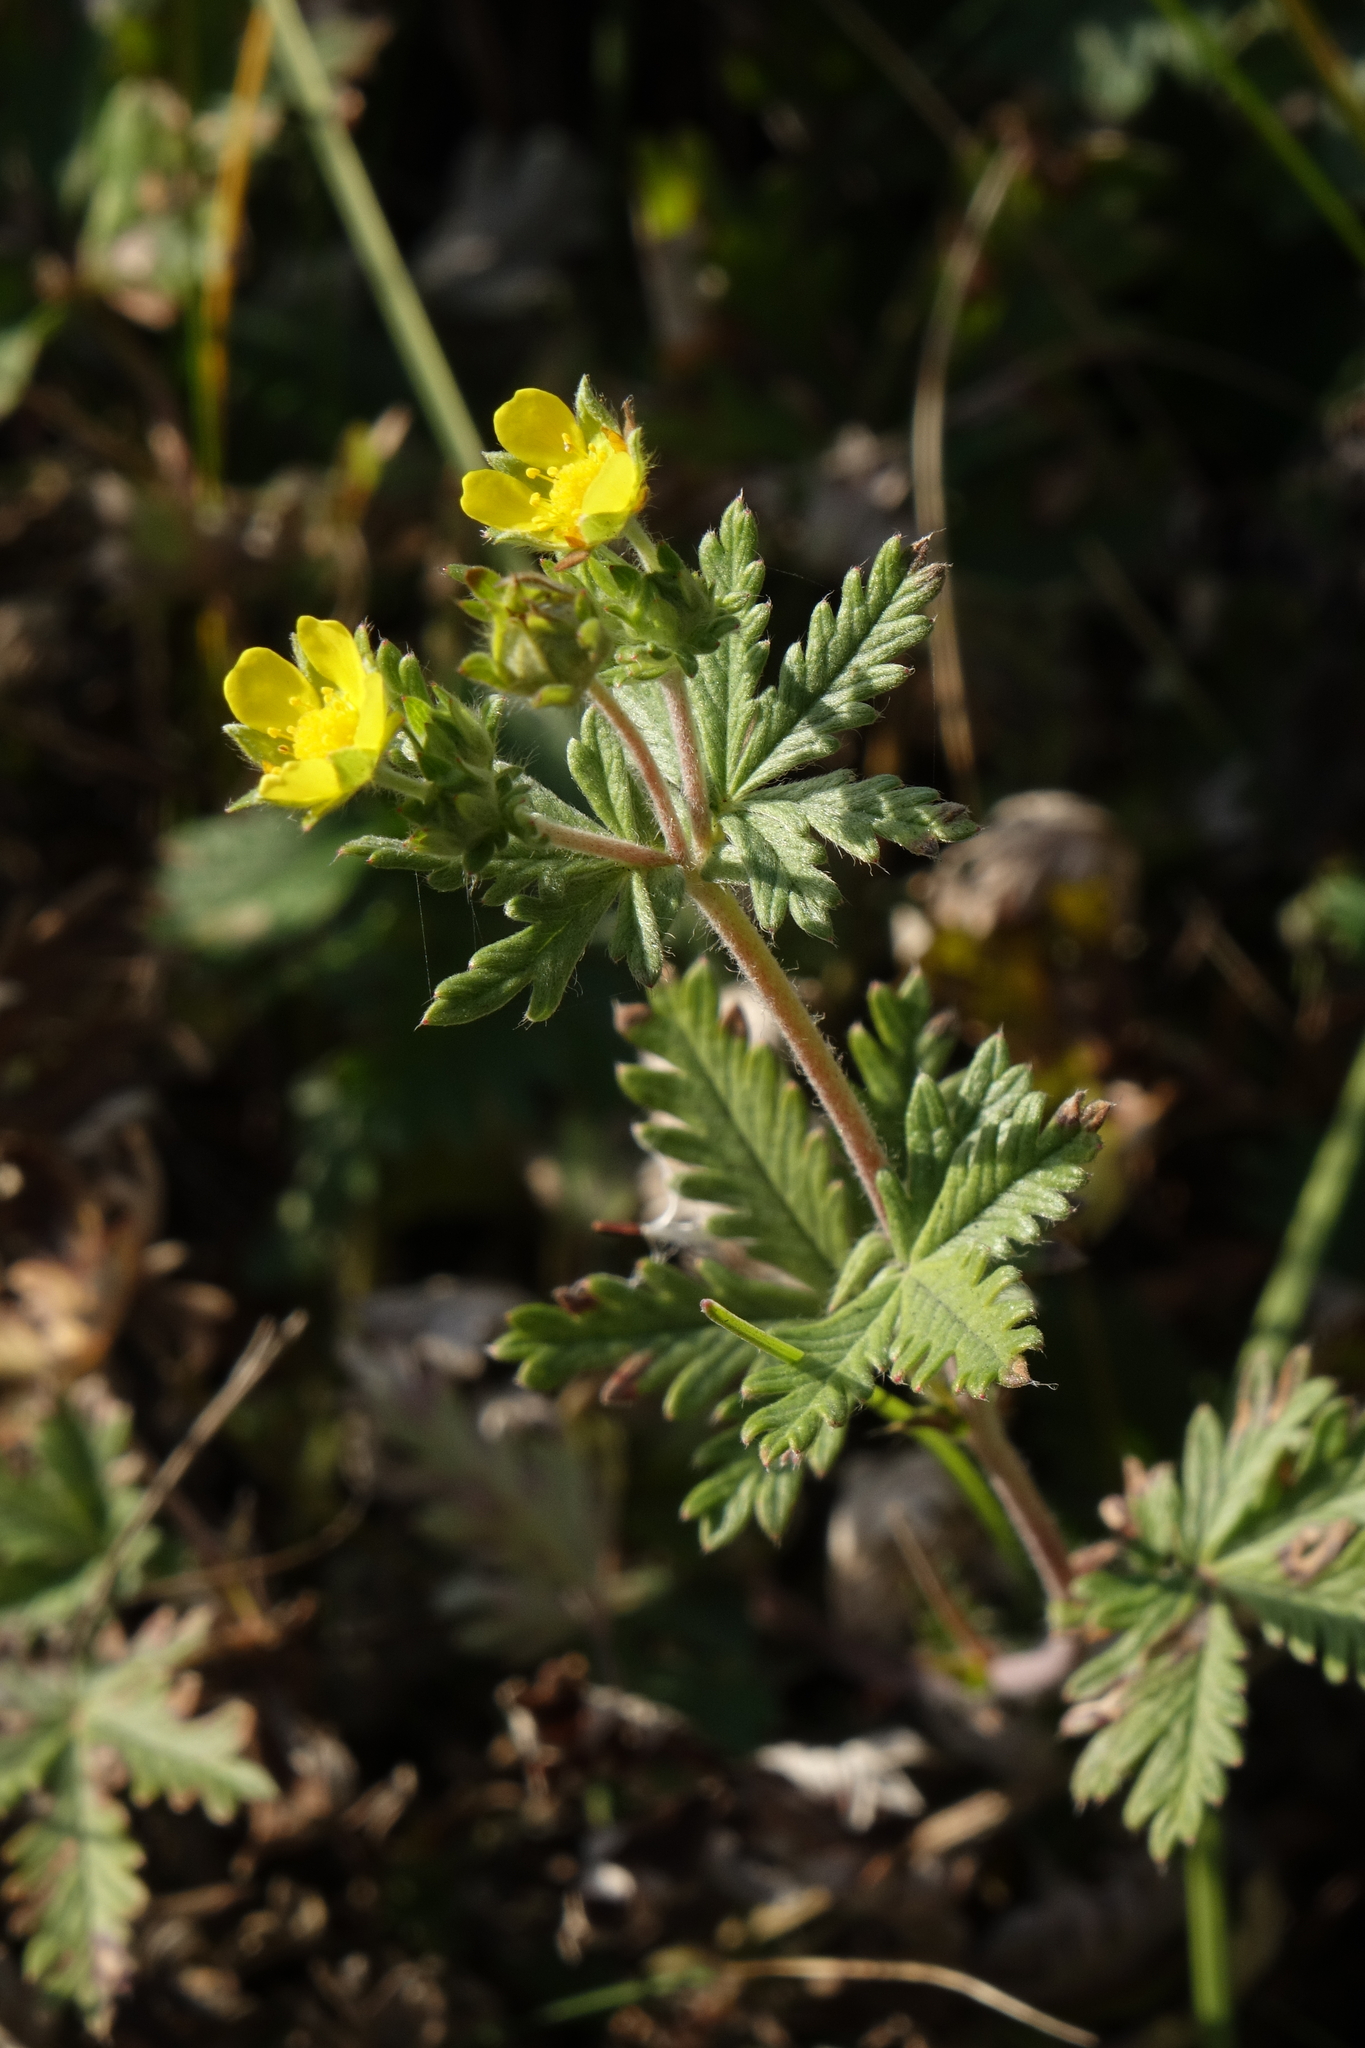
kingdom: Plantae
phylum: Tracheophyta
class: Magnoliopsida
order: Rosales
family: Rosaceae
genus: Potentilla
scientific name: Potentilla argentea
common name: Hoary cinquefoil
